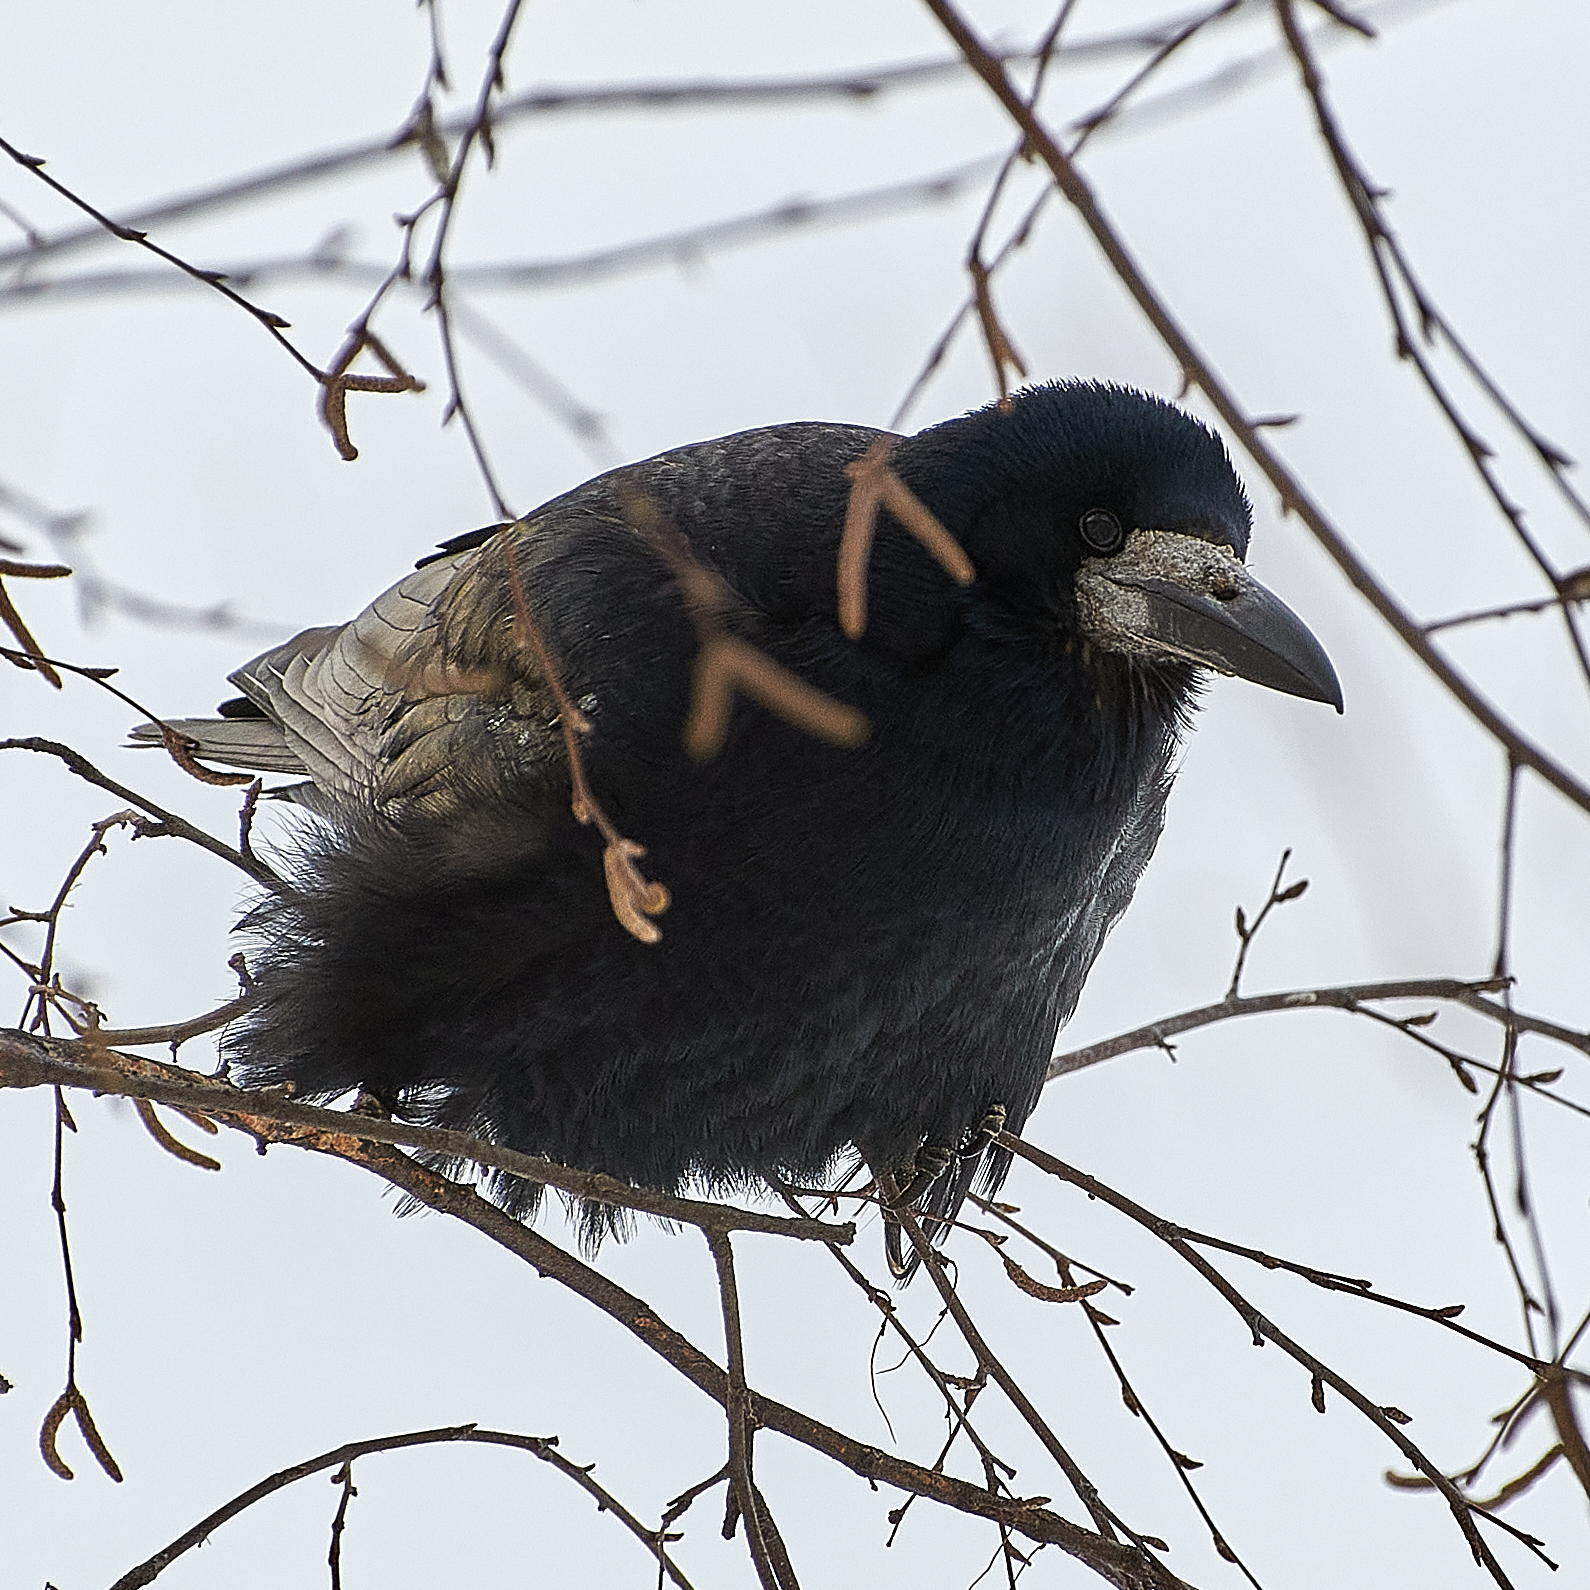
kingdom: Animalia
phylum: Chordata
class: Aves
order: Passeriformes
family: Corvidae
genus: Corvus
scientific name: Corvus frugilegus
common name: Rook
